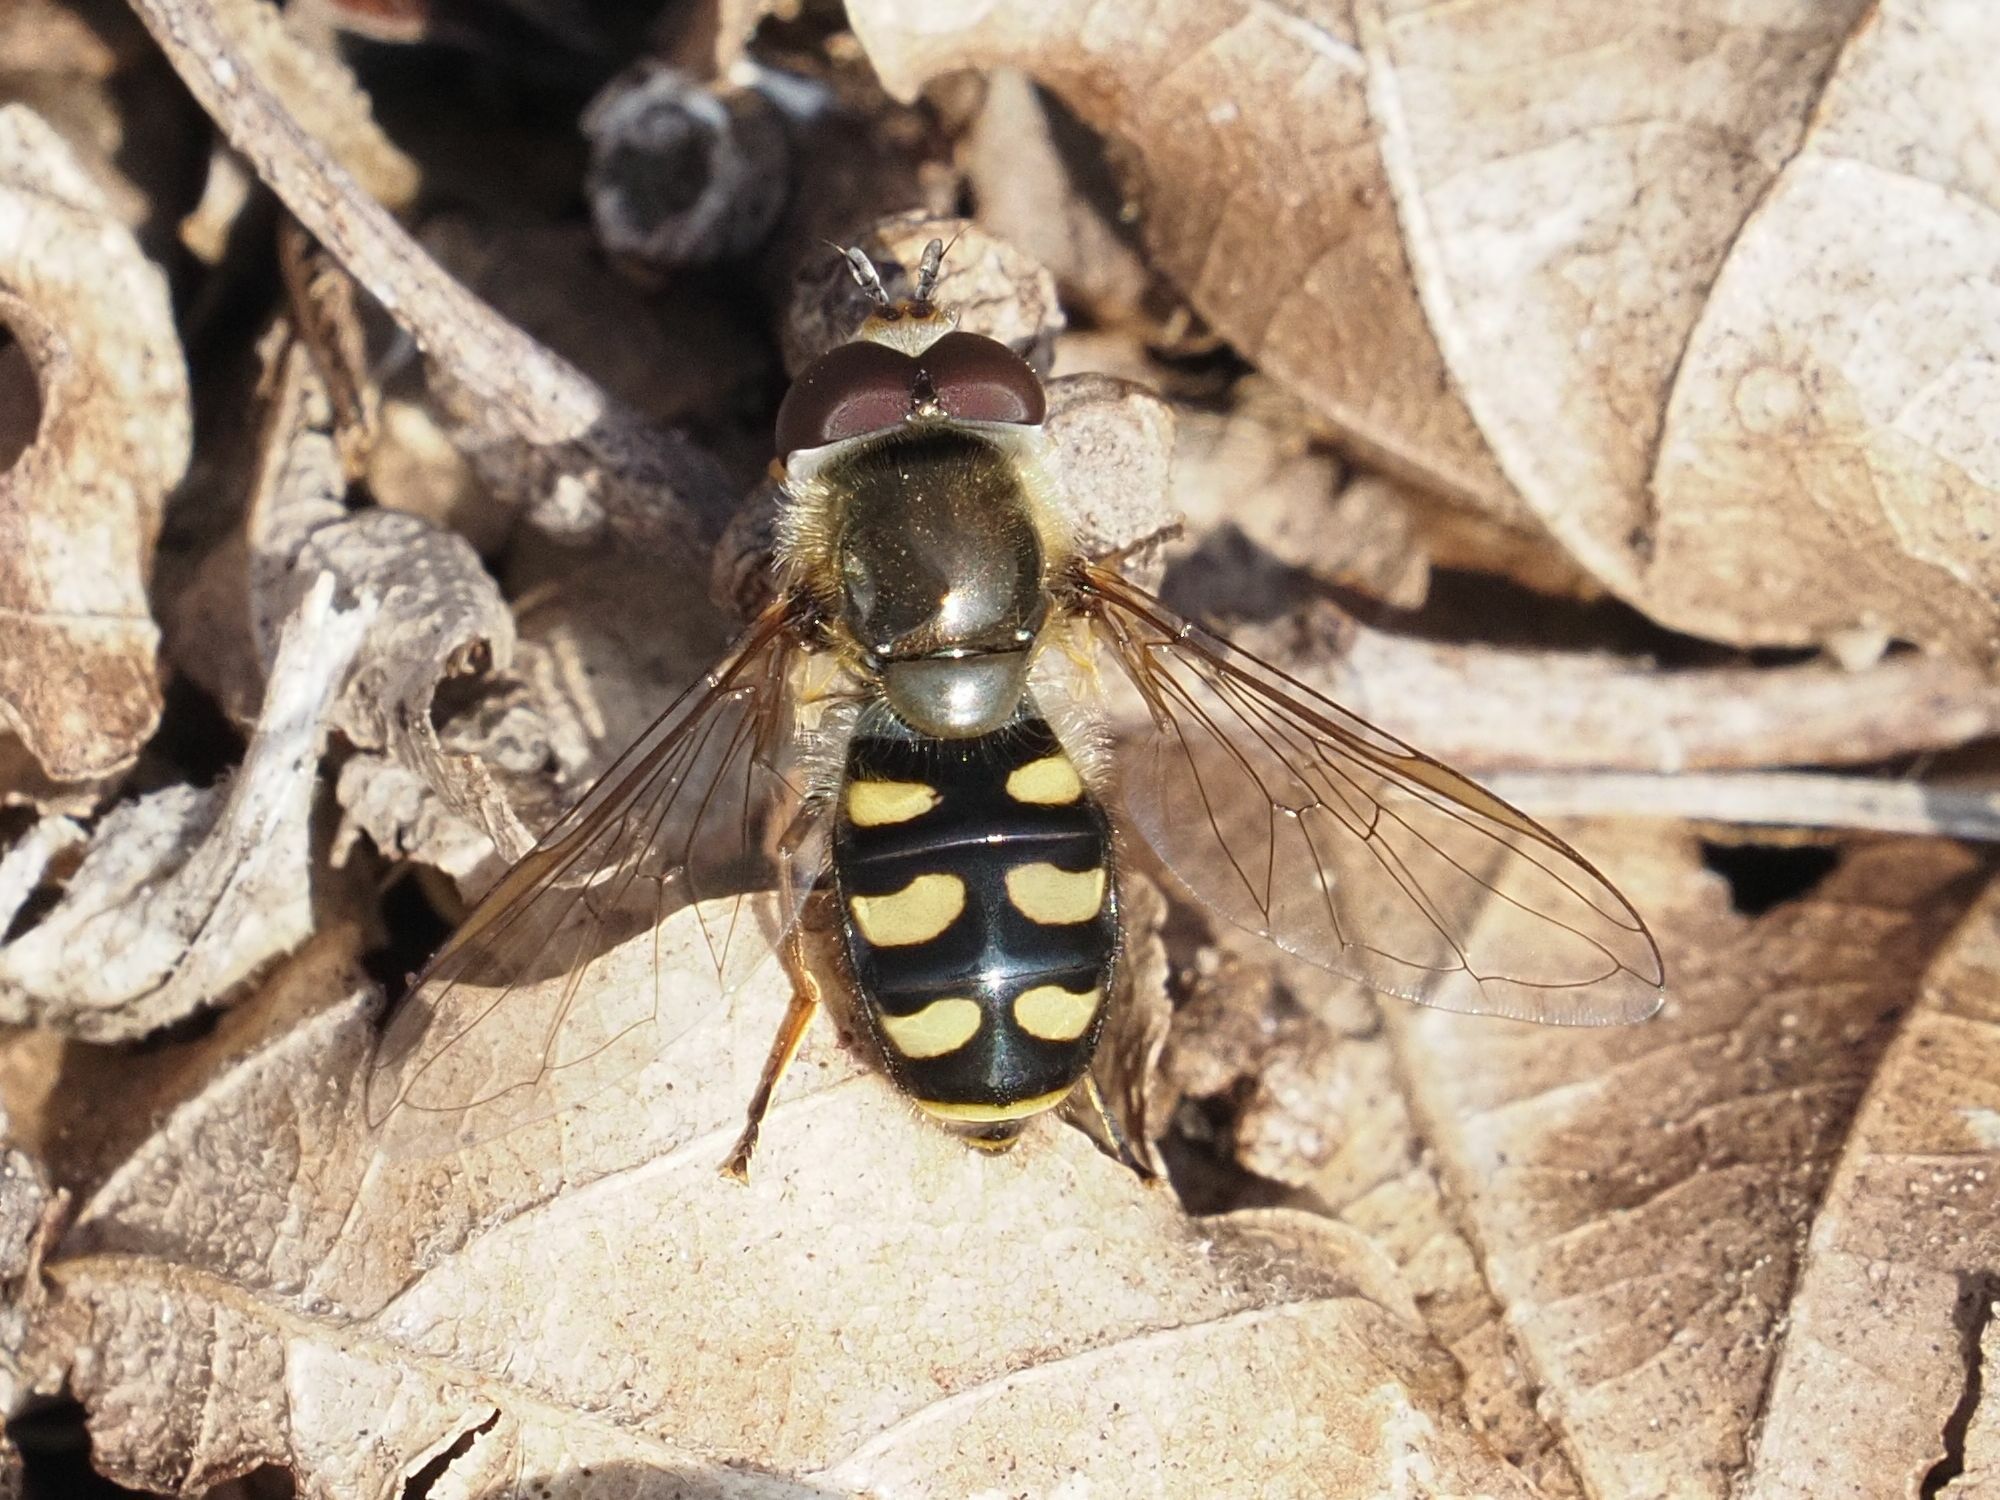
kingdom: Animalia
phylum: Arthropoda
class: Insecta
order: Diptera
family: Syrphidae
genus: Eupeodes
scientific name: Eupeodes luniger
